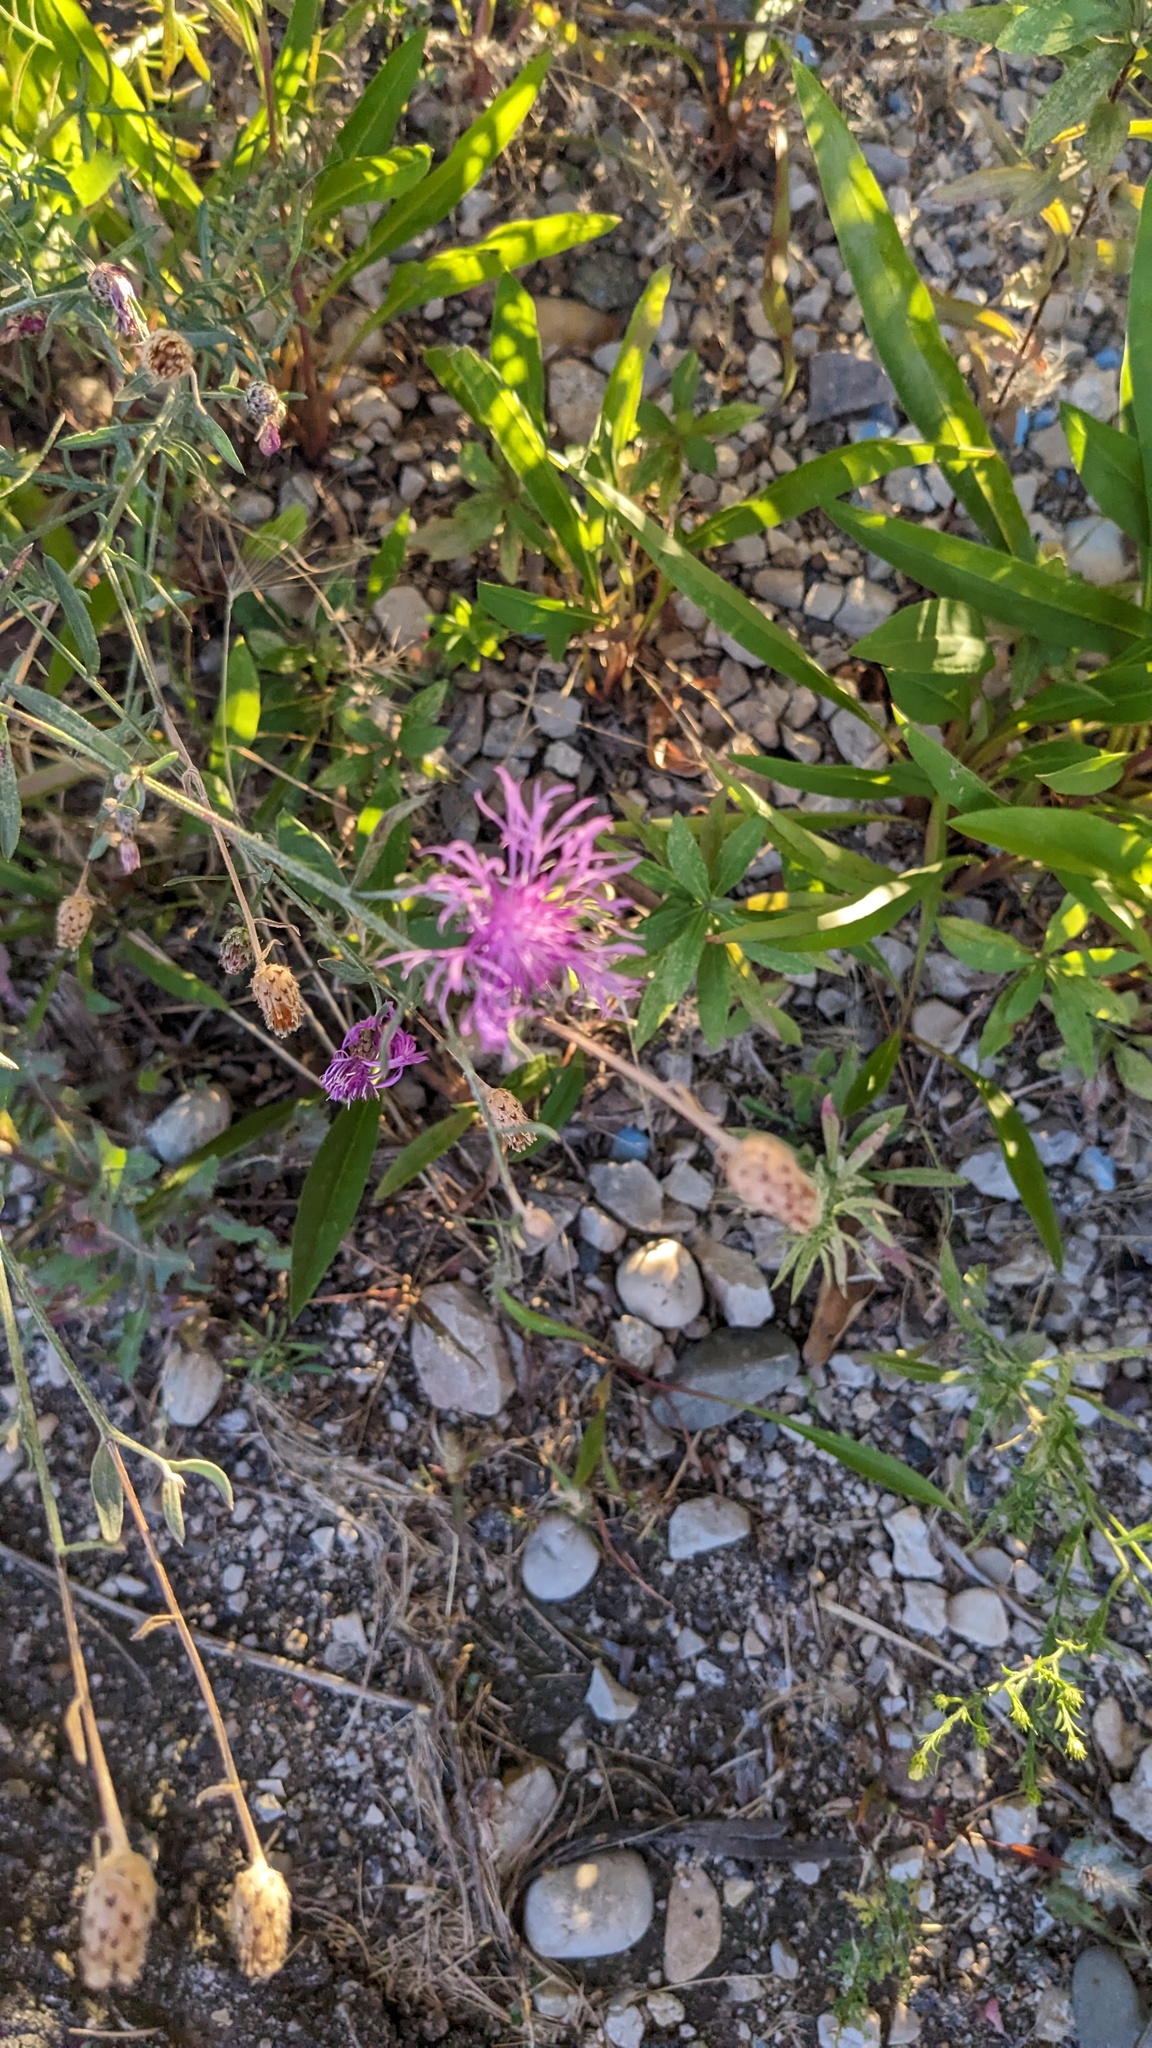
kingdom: Plantae
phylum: Tracheophyta
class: Magnoliopsida
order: Asterales
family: Asteraceae
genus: Centaurea
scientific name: Centaurea stoebe
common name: Spotted knapweed
